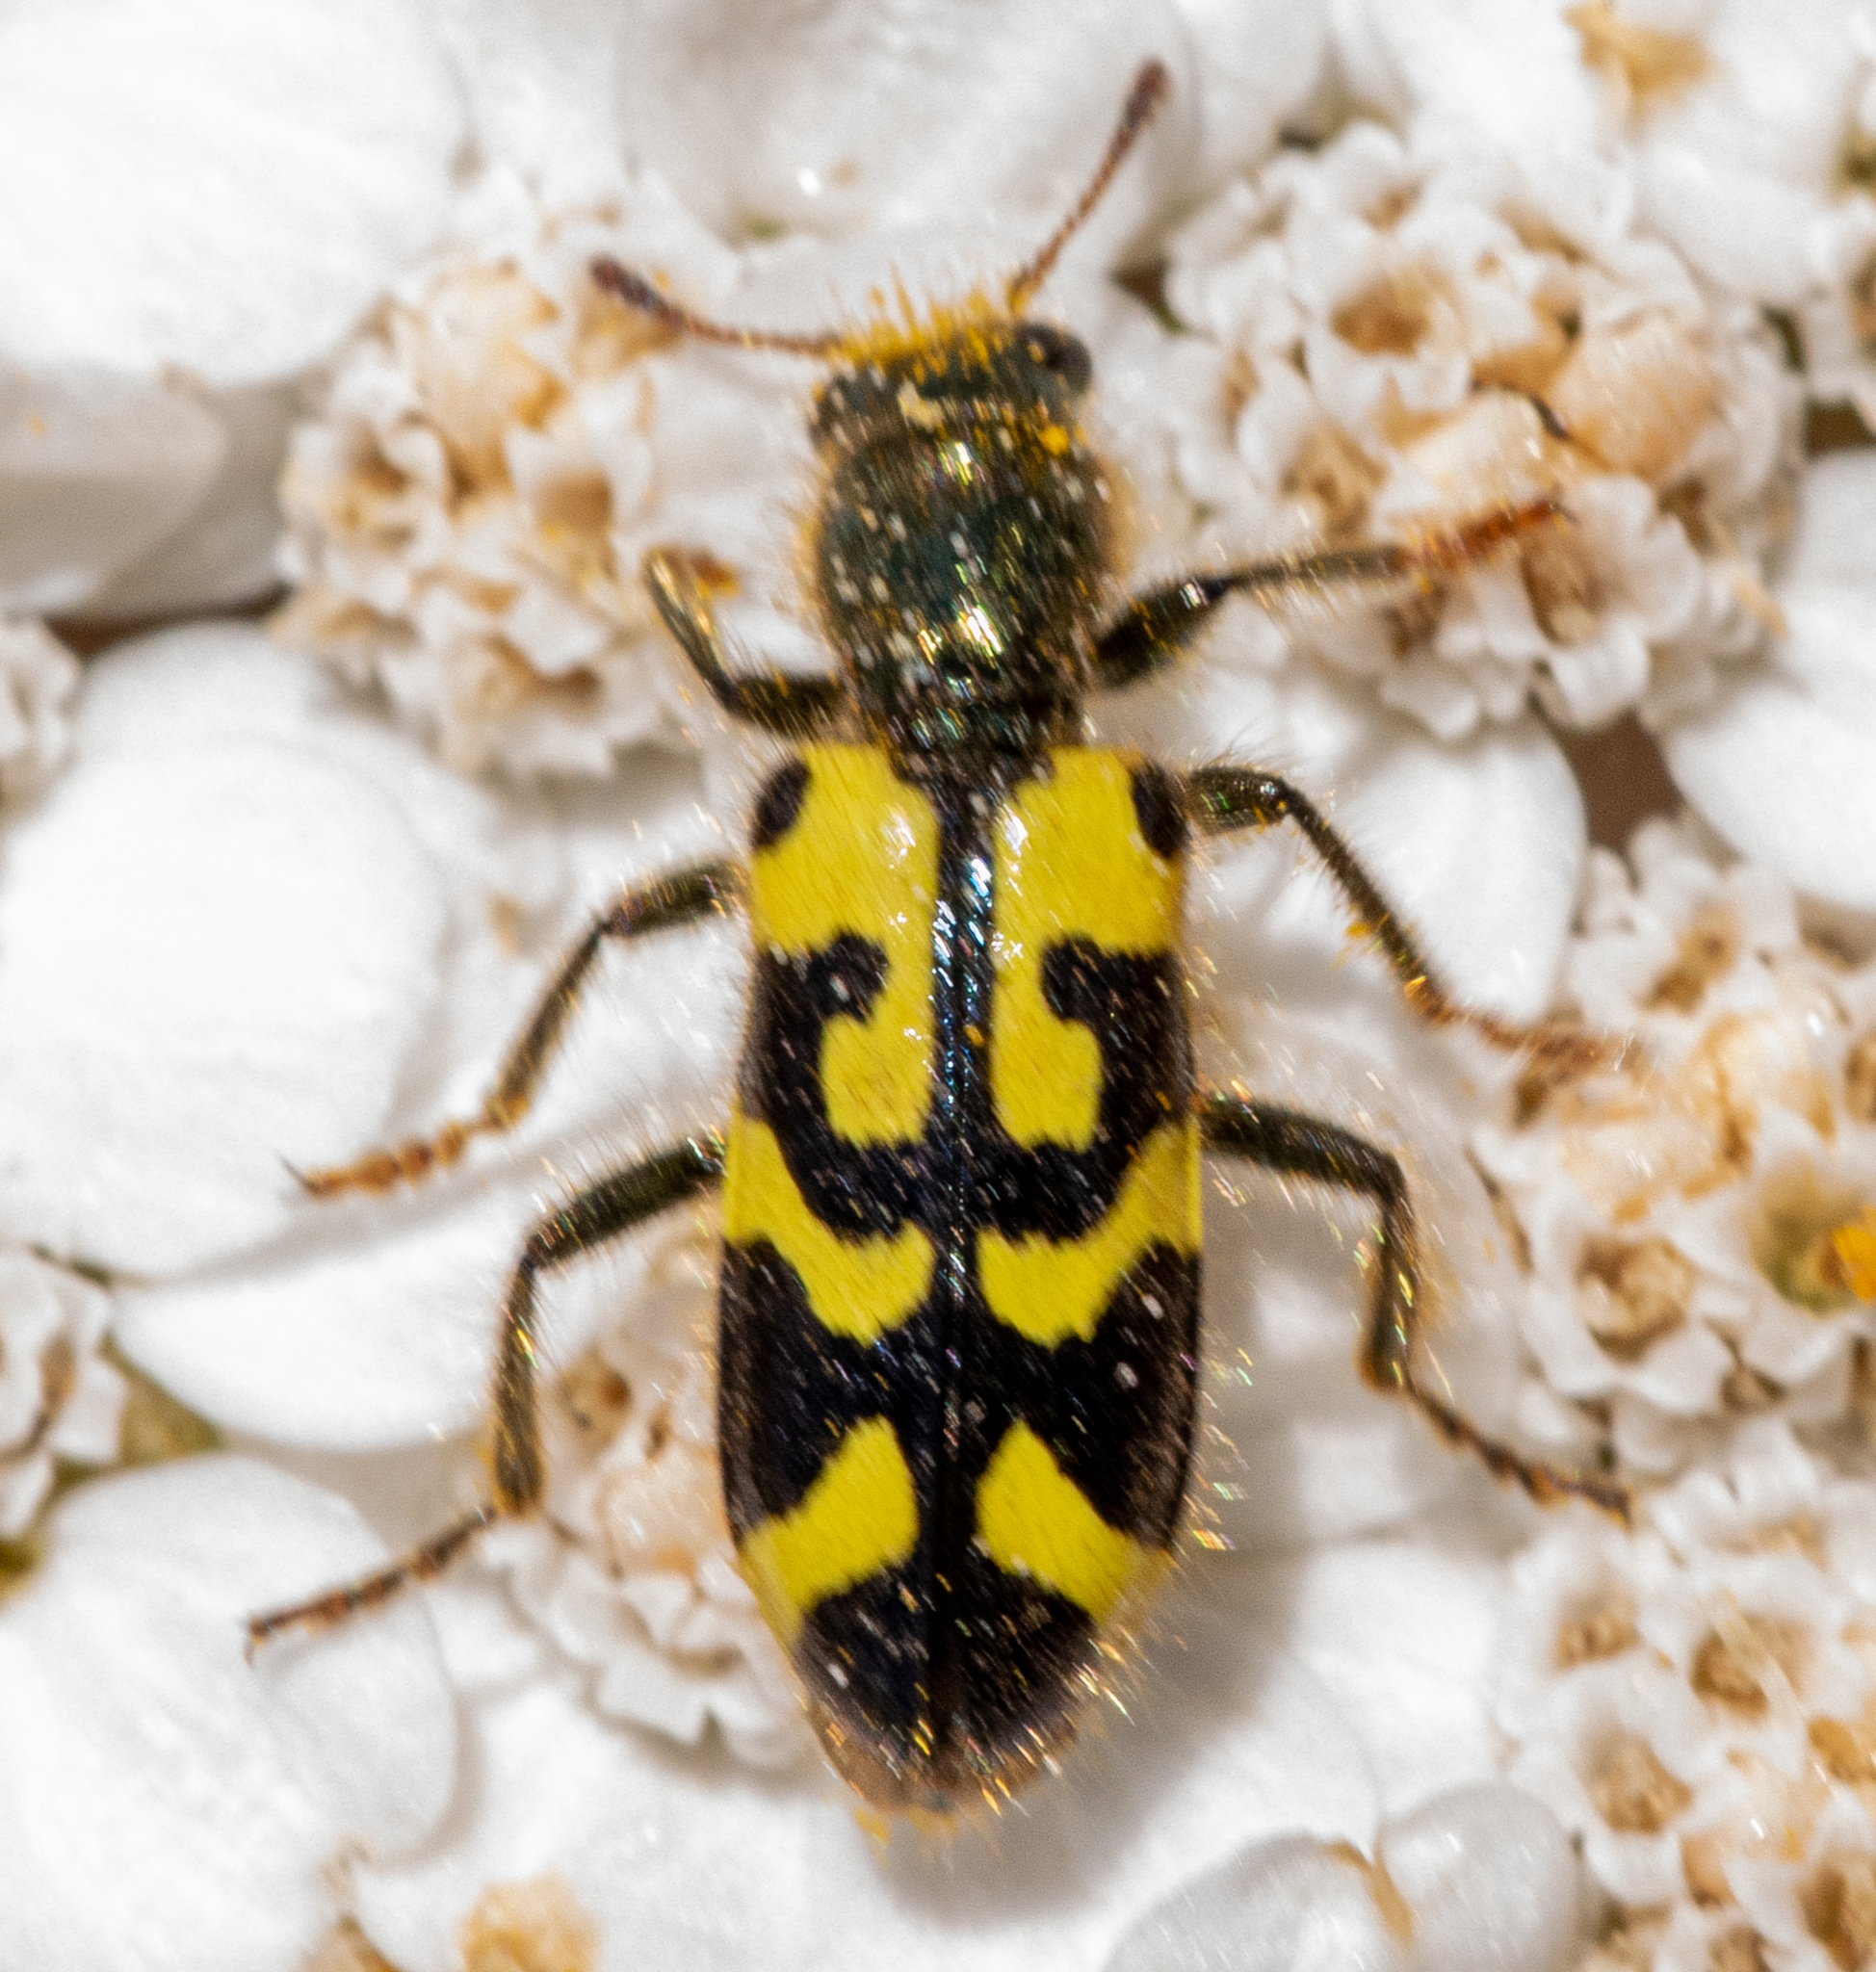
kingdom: Animalia
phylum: Arthropoda
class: Insecta
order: Coleoptera
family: Cleridae
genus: Trichodes
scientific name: Trichodes ornatus
